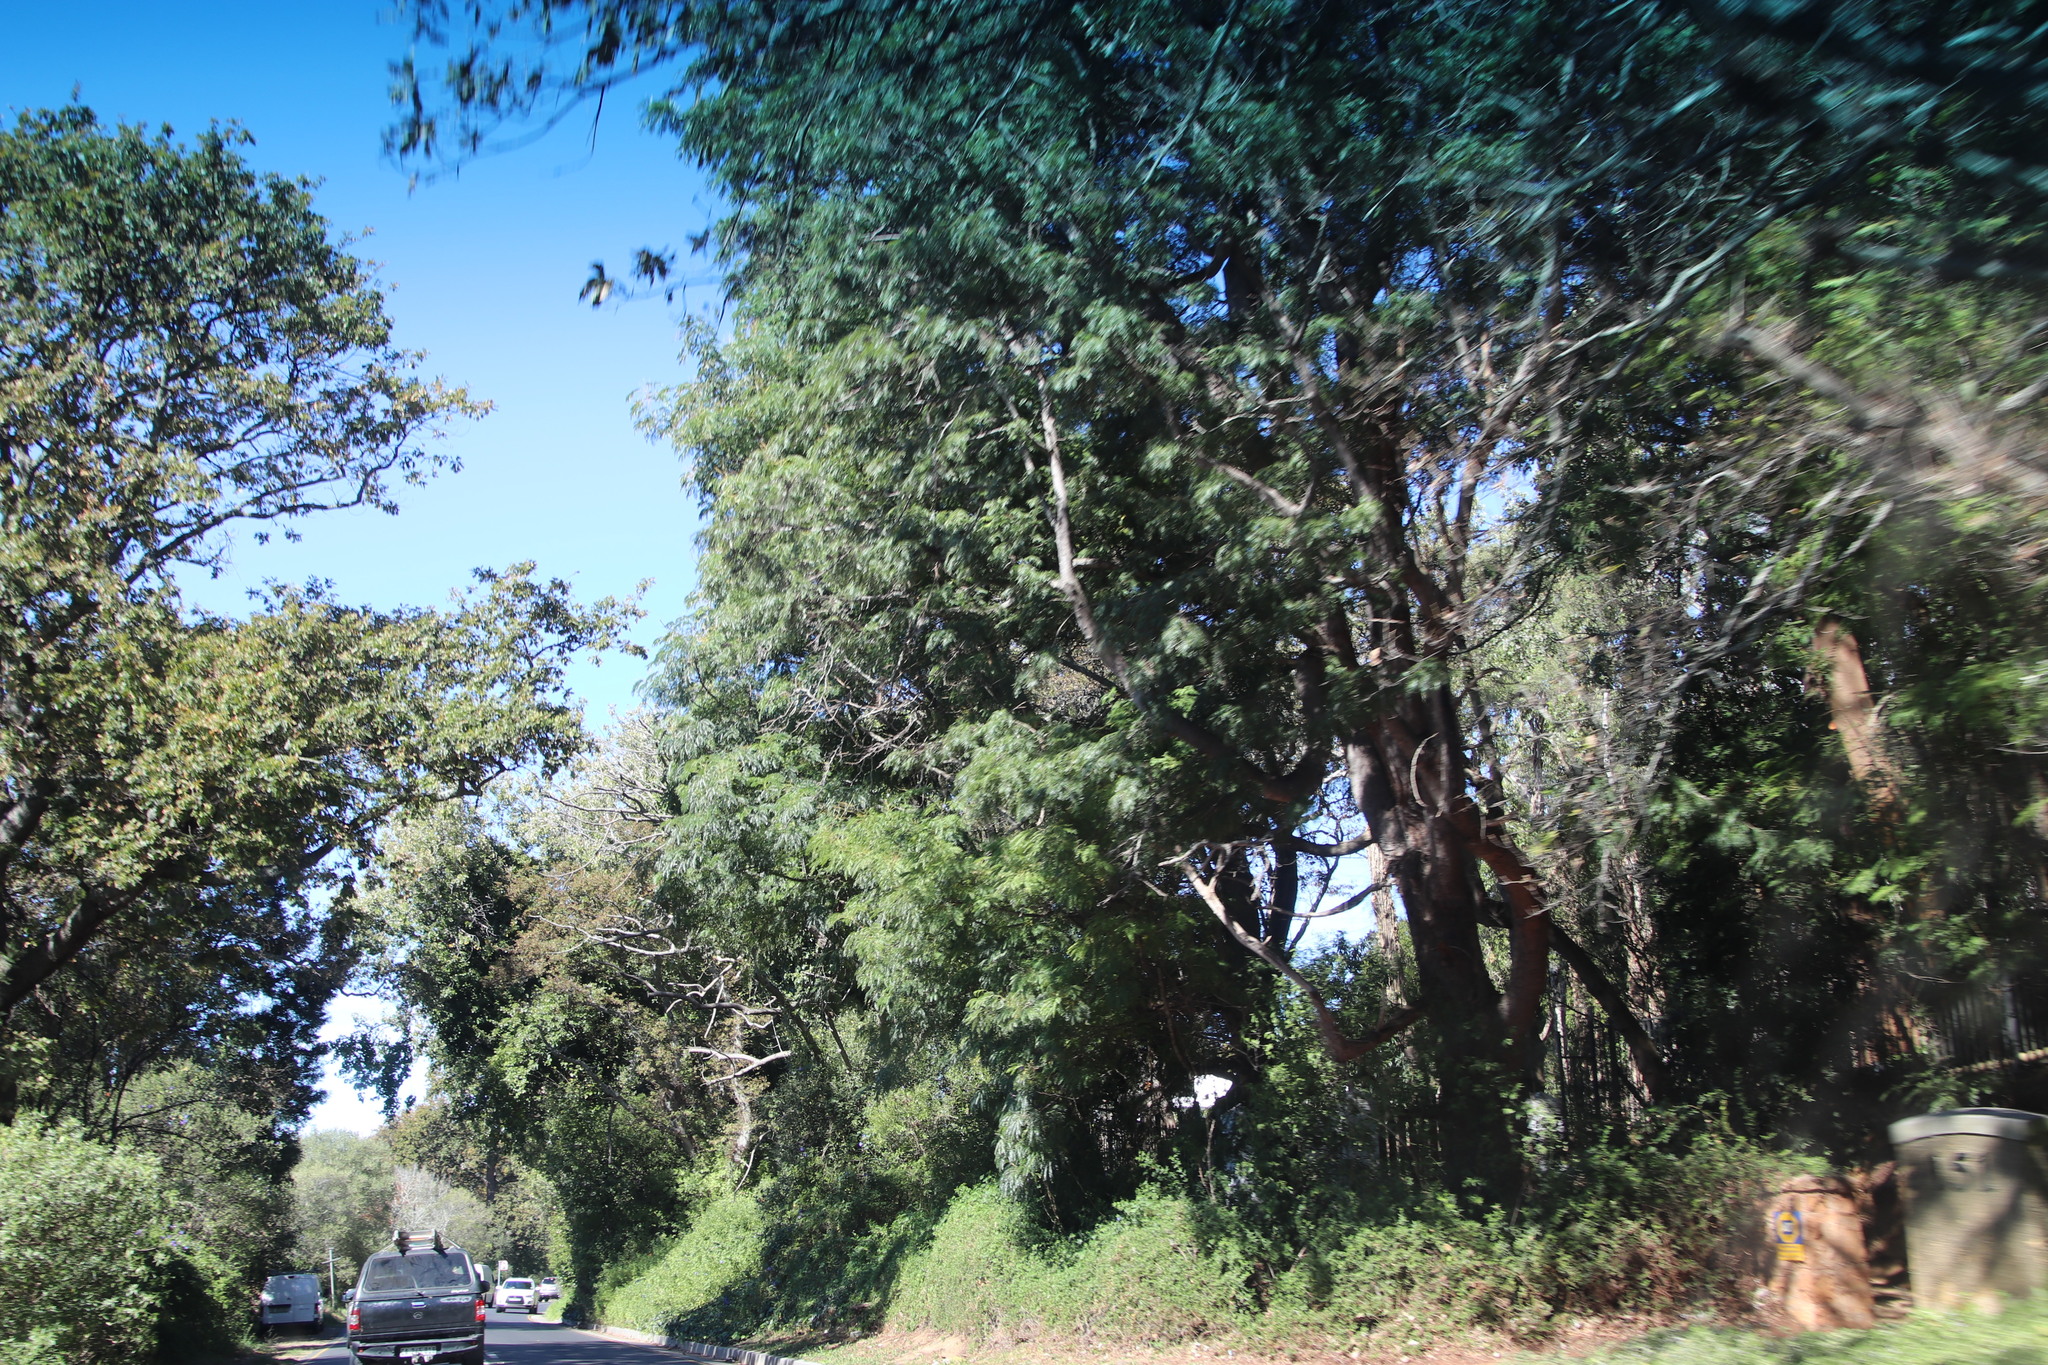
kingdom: Plantae
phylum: Tracheophyta
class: Magnoliopsida
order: Fabales
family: Fabaceae
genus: Acacia
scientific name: Acacia elata
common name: Cedar wattle
